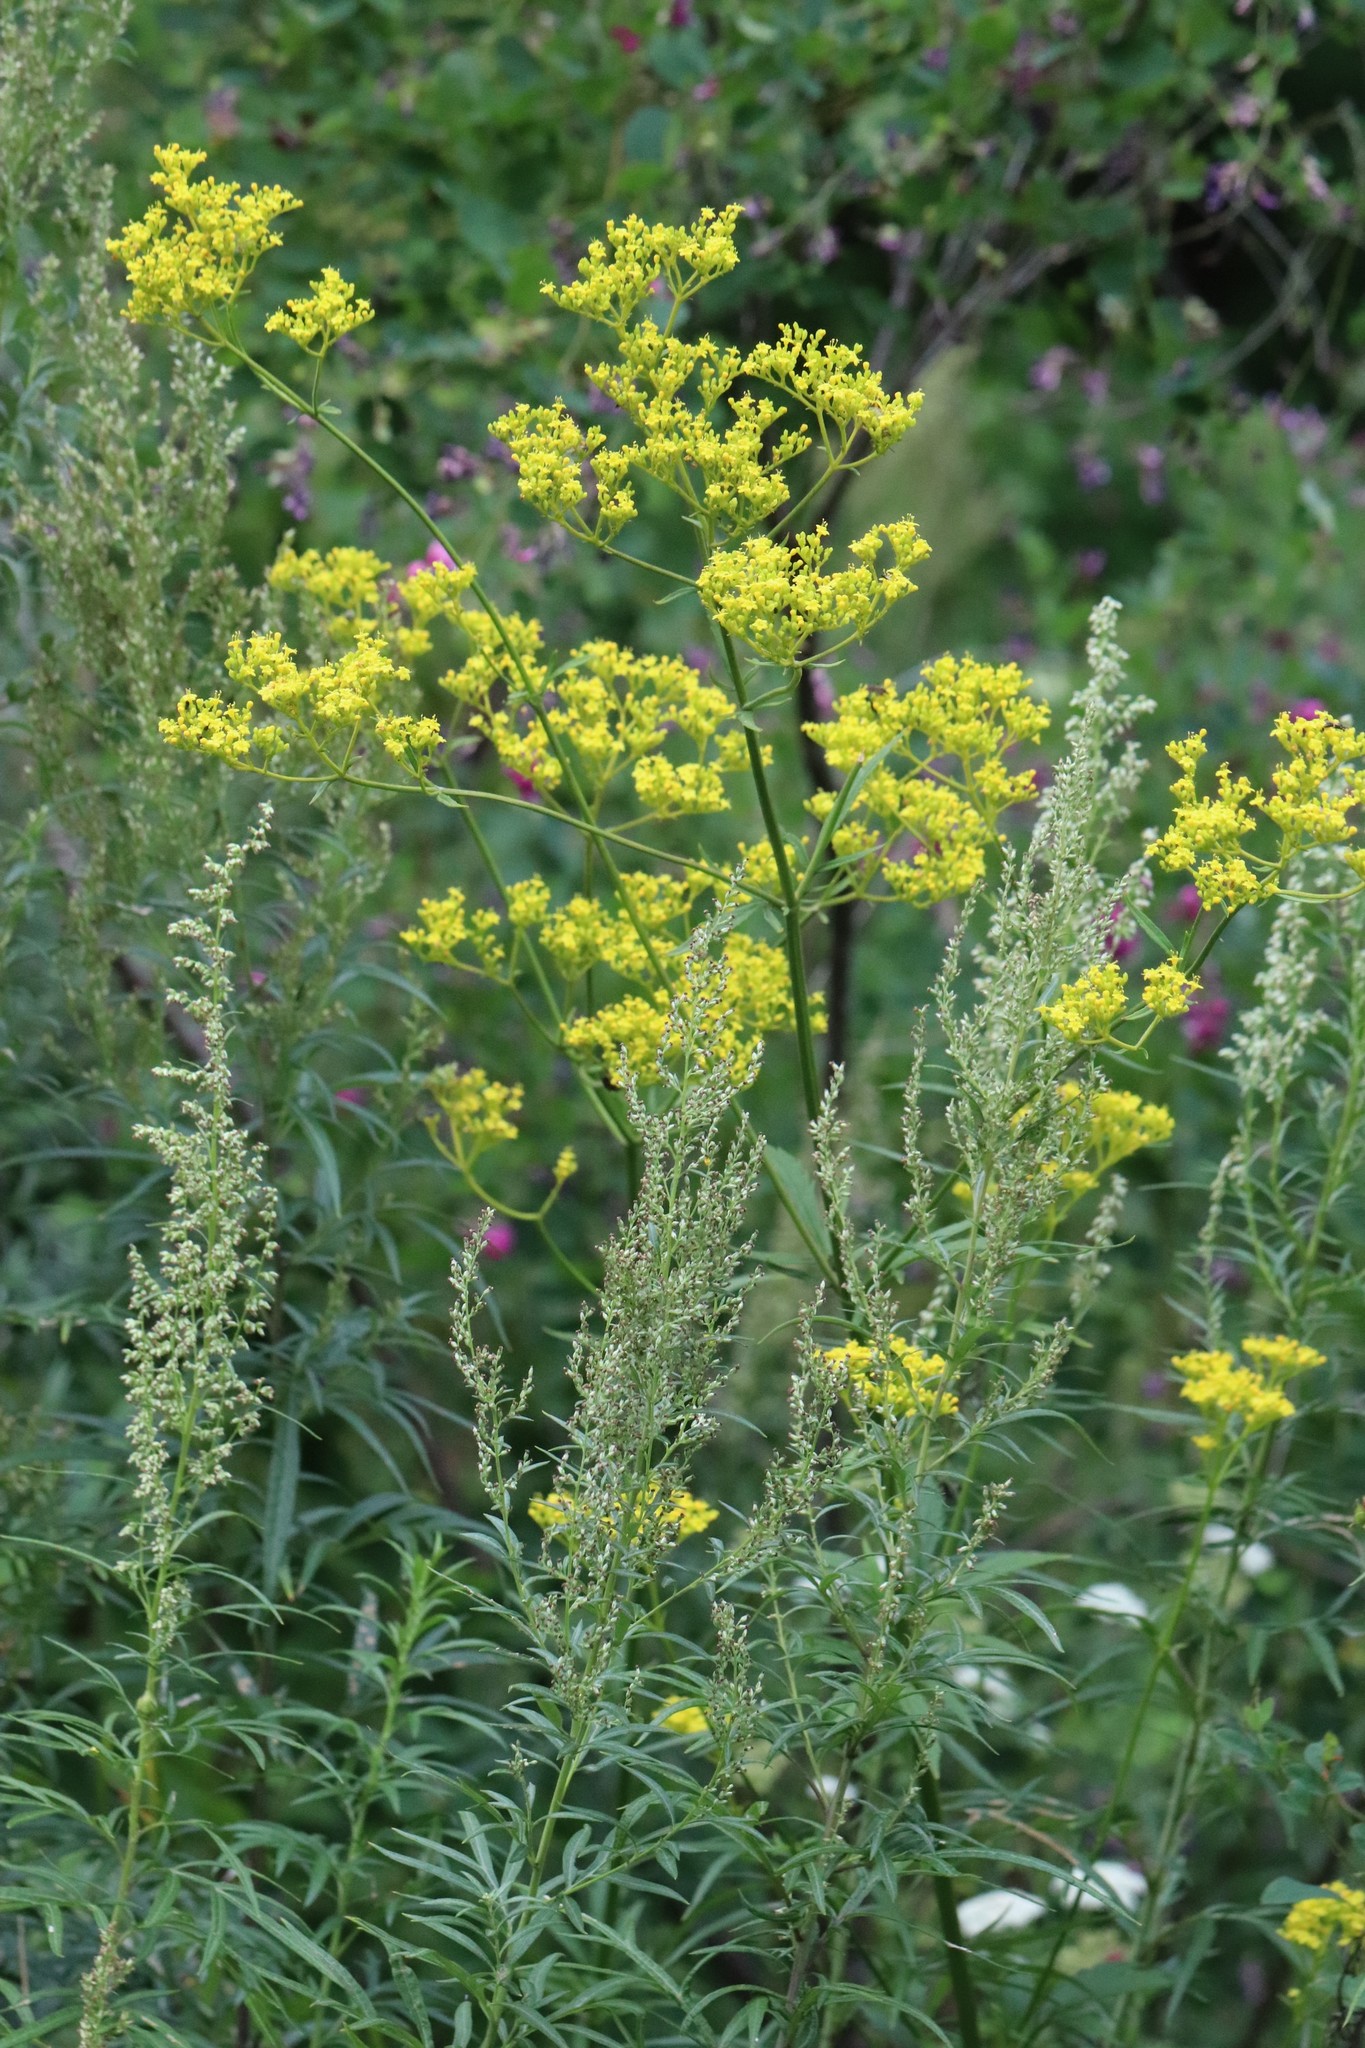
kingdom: Plantae
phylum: Tracheophyta
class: Magnoliopsida
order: Dipsacales
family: Caprifoliaceae
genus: Patrinia
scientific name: Patrinia scabiosifolia
